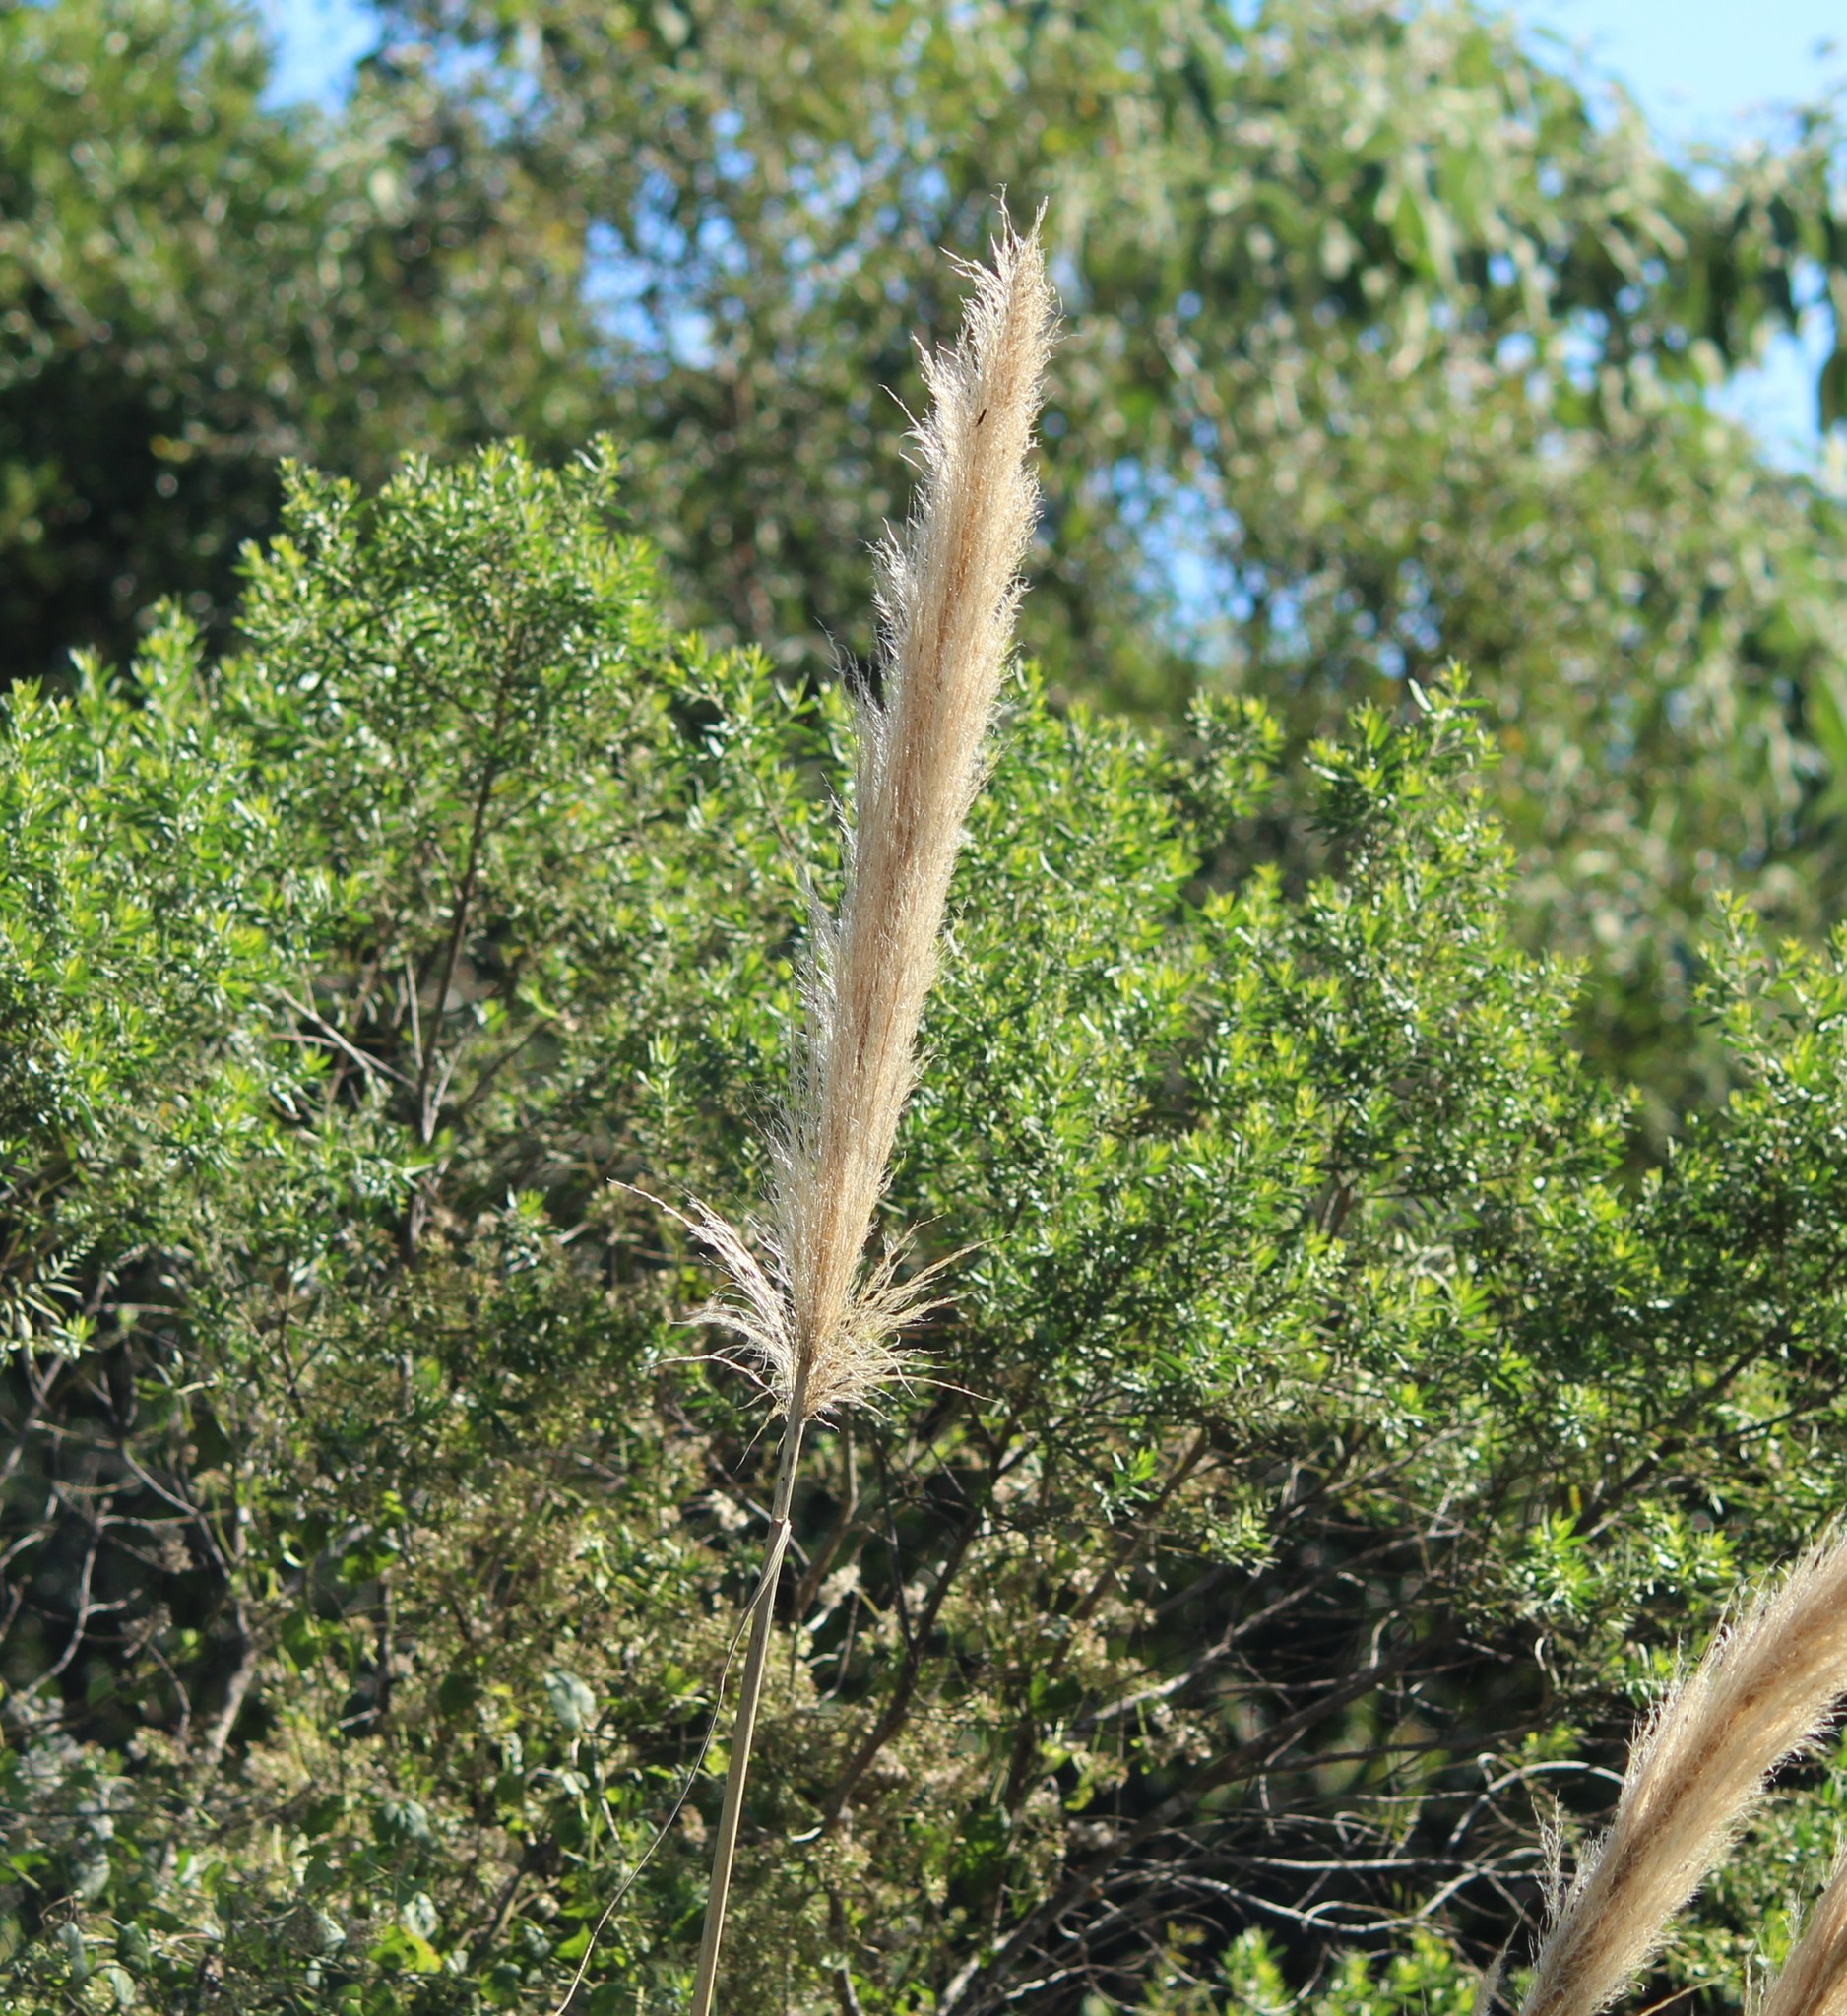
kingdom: Plantae
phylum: Tracheophyta
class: Liliopsida
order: Poales
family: Poaceae
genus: Cortaderia
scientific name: Cortaderia selloana
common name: Uruguayan pampas grass
